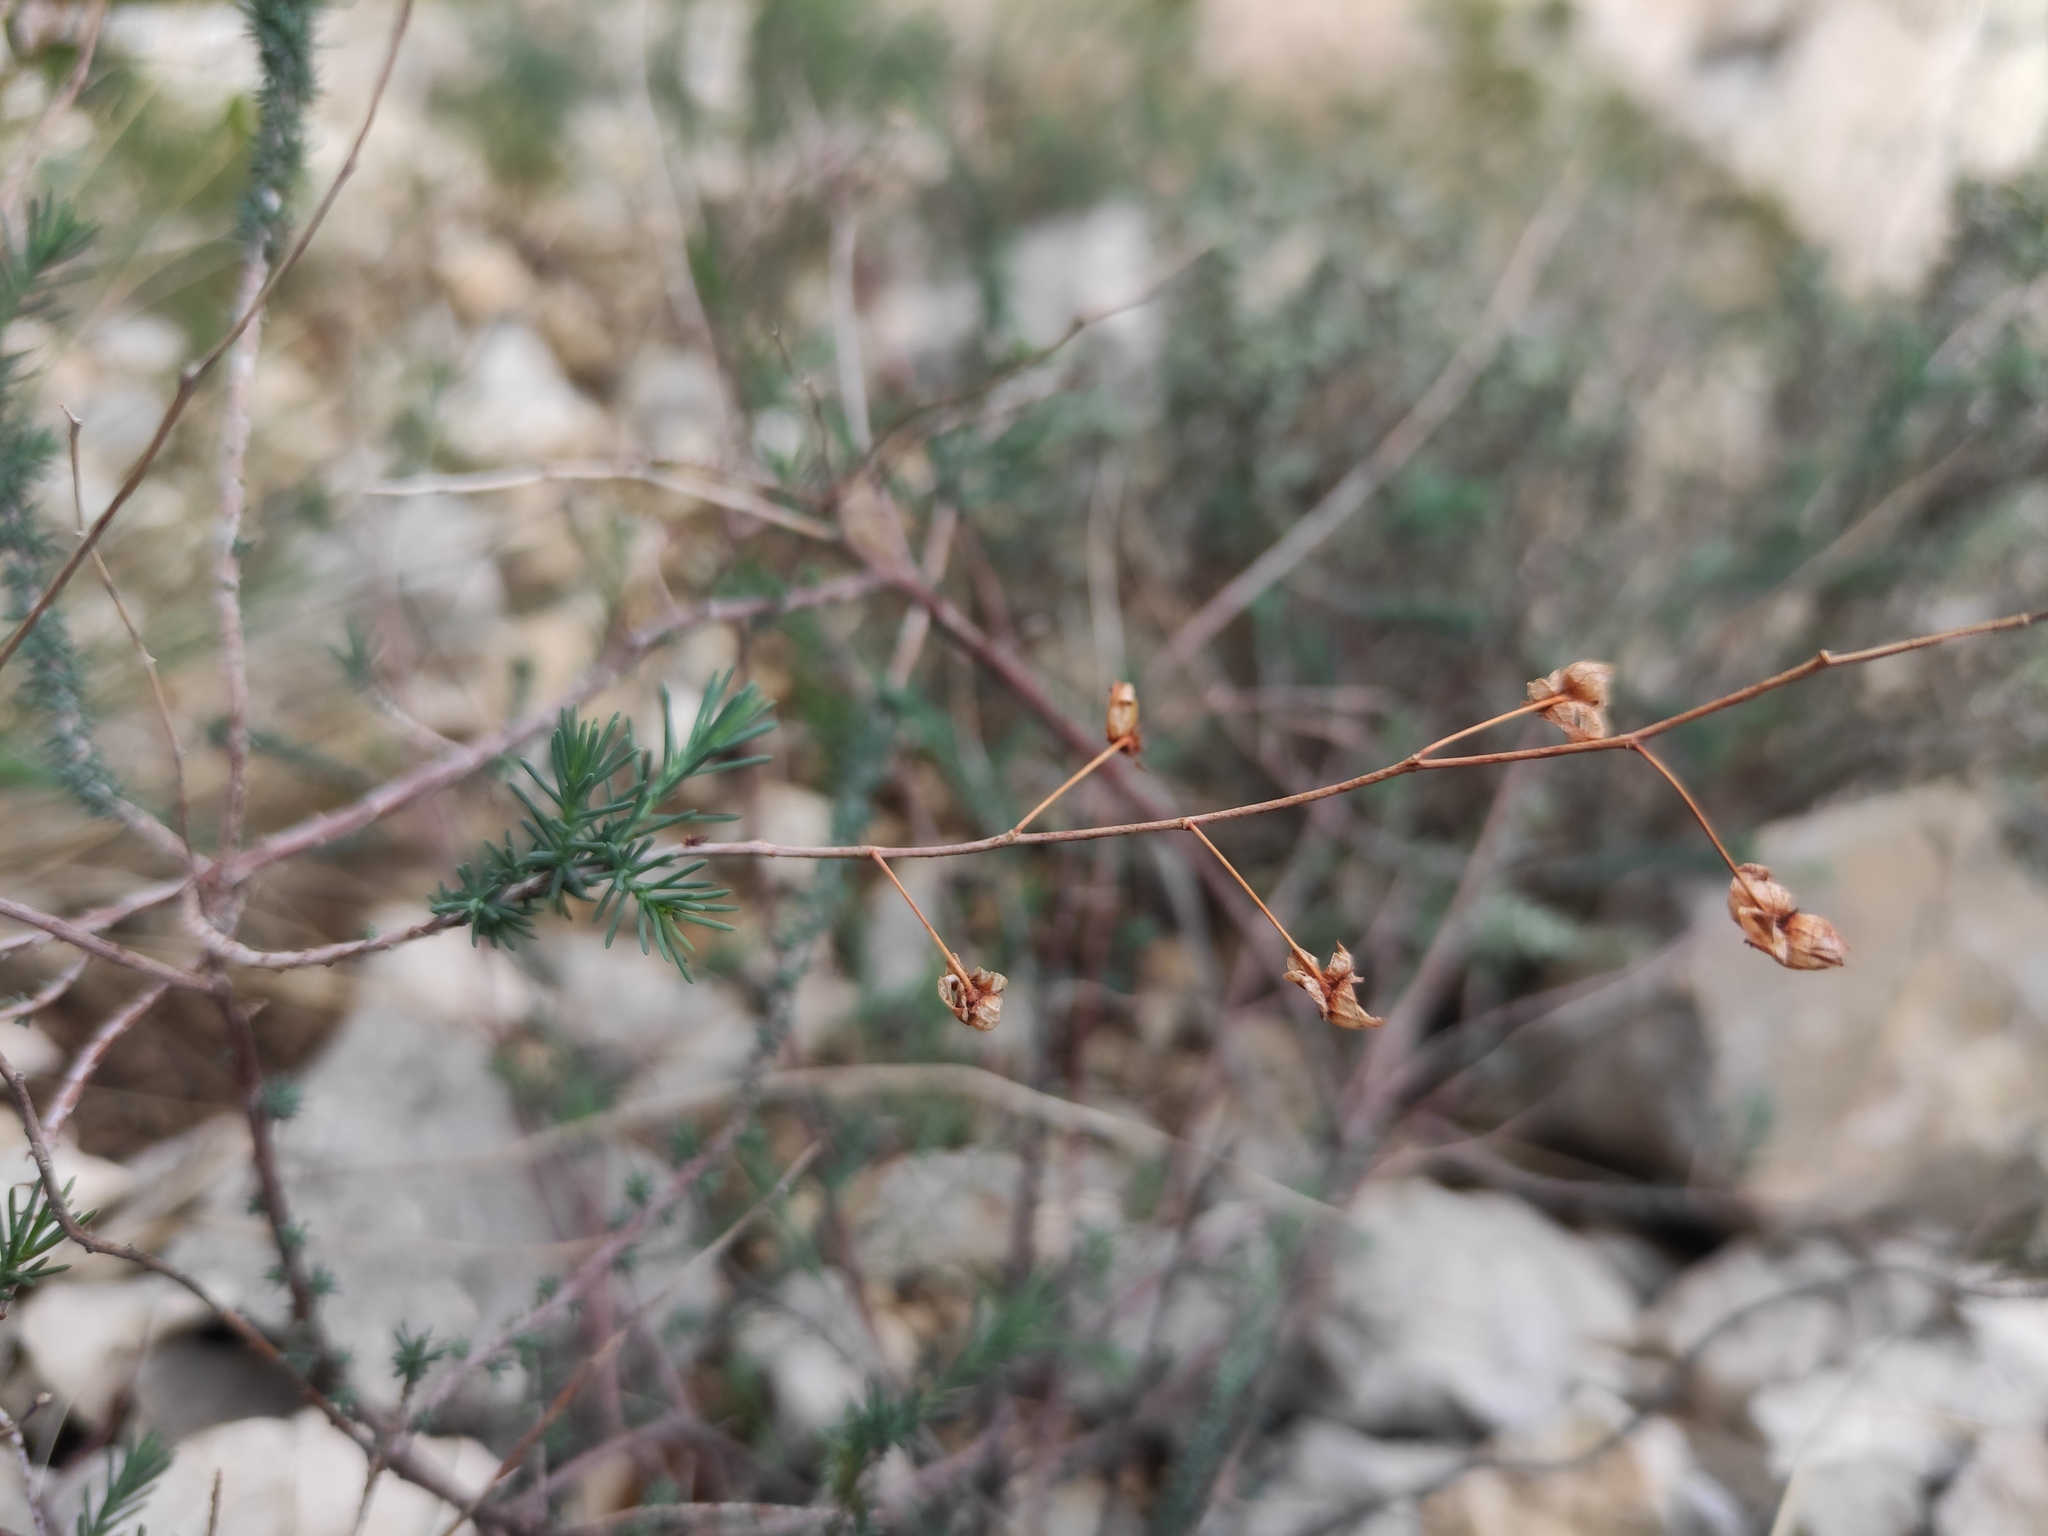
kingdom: Plantae
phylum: Tracheophyta
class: Magnoliopsida
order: Malvales
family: Cistaceae
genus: Fumana
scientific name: Fumana laevipes
